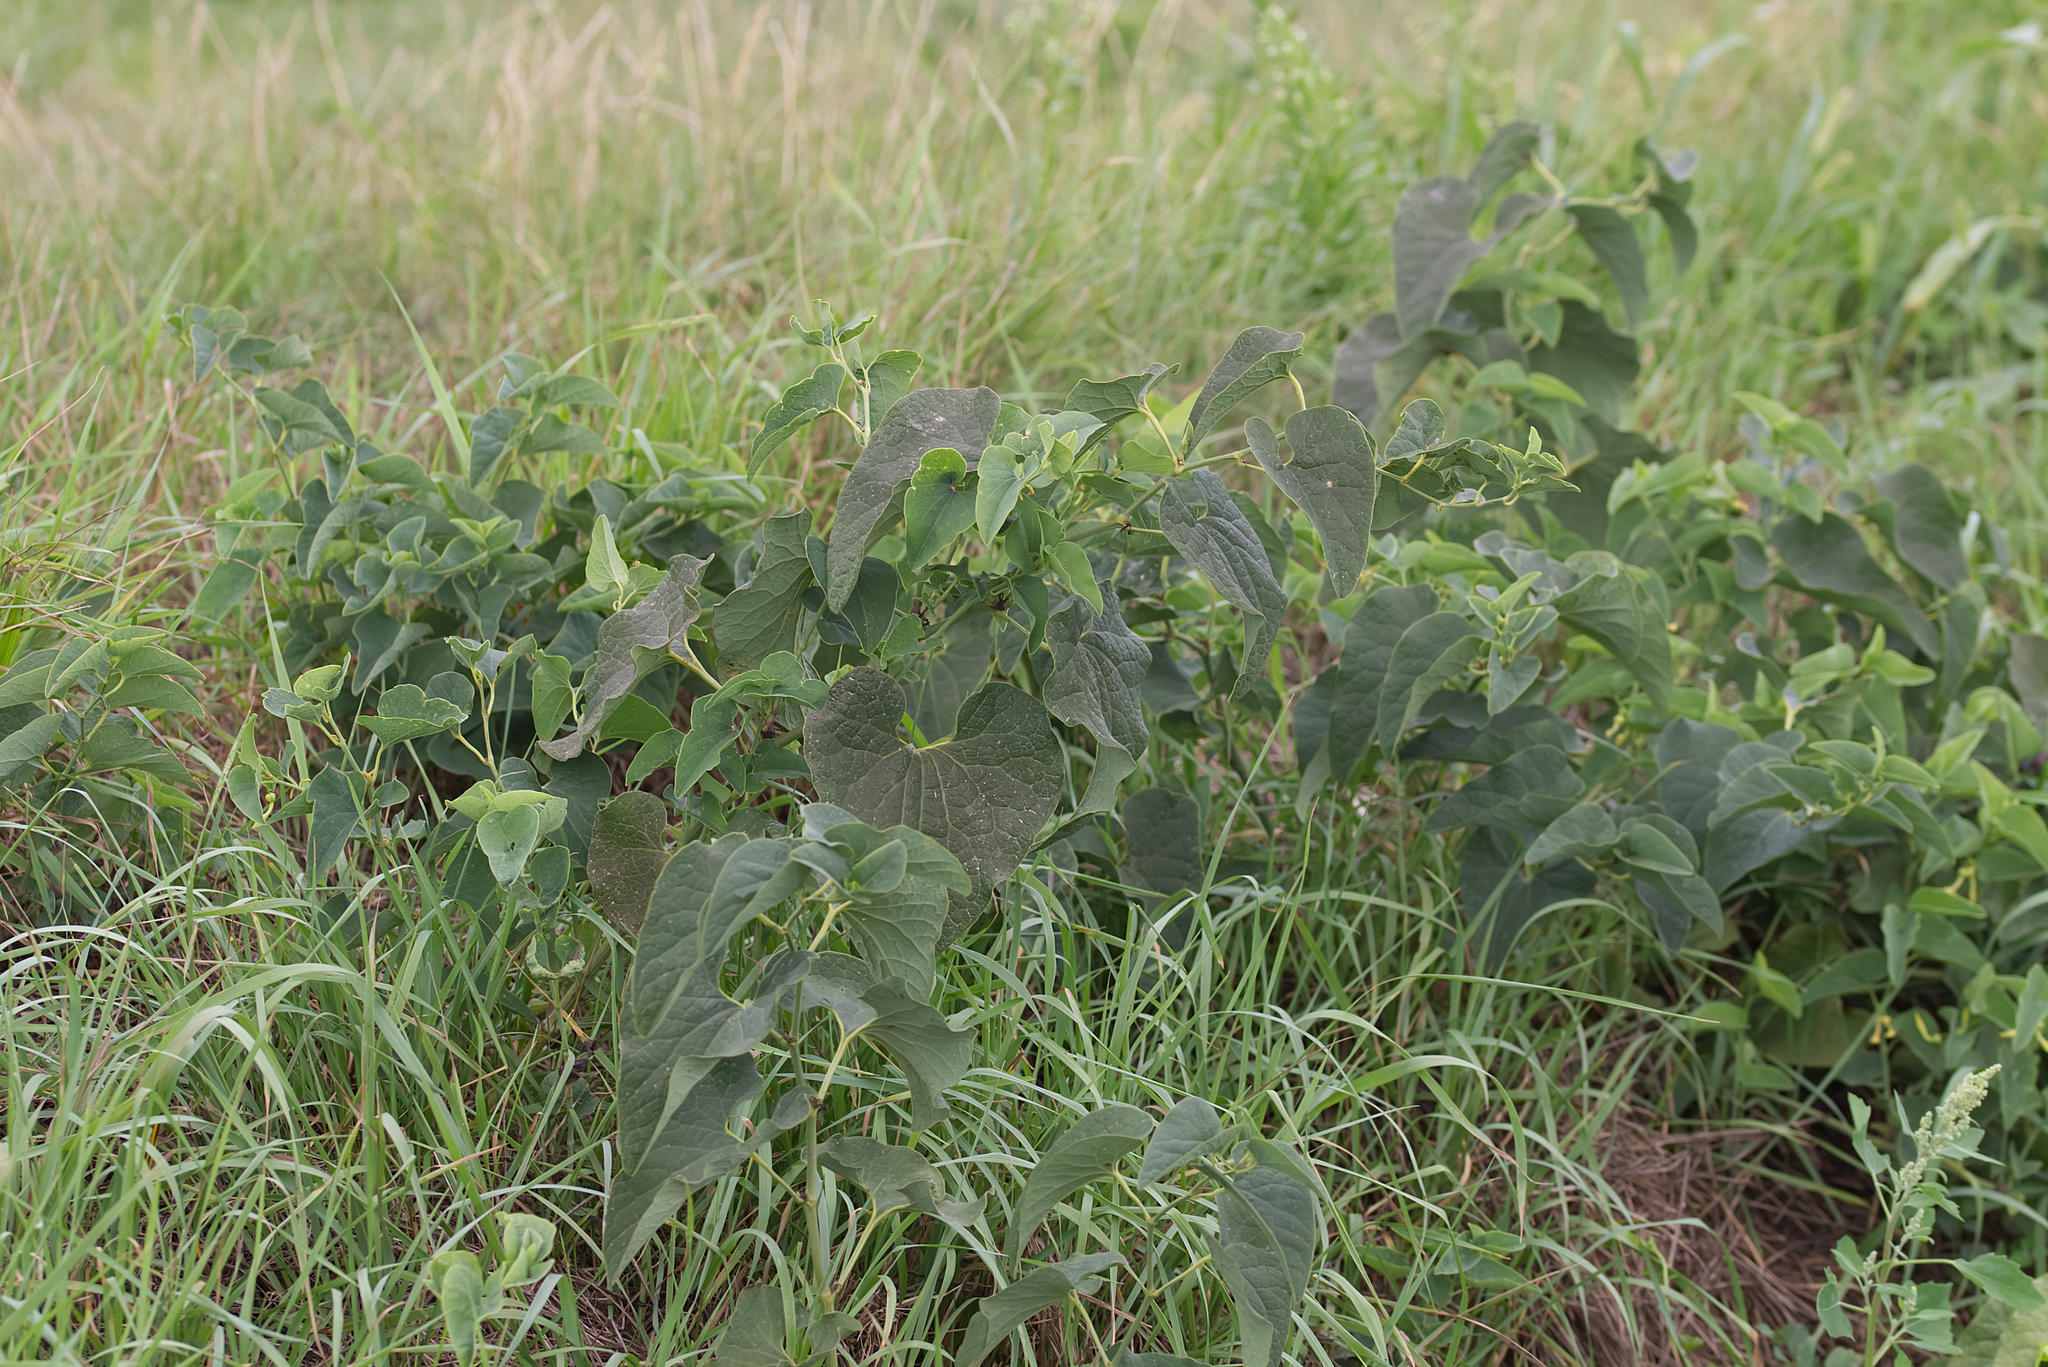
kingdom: Plantae
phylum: Tracheophyta
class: Magnoliopsida
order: Piperales
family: Aristolochiaceae
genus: Aristolochia
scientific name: Aristolochia clematitis
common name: Birthwort
